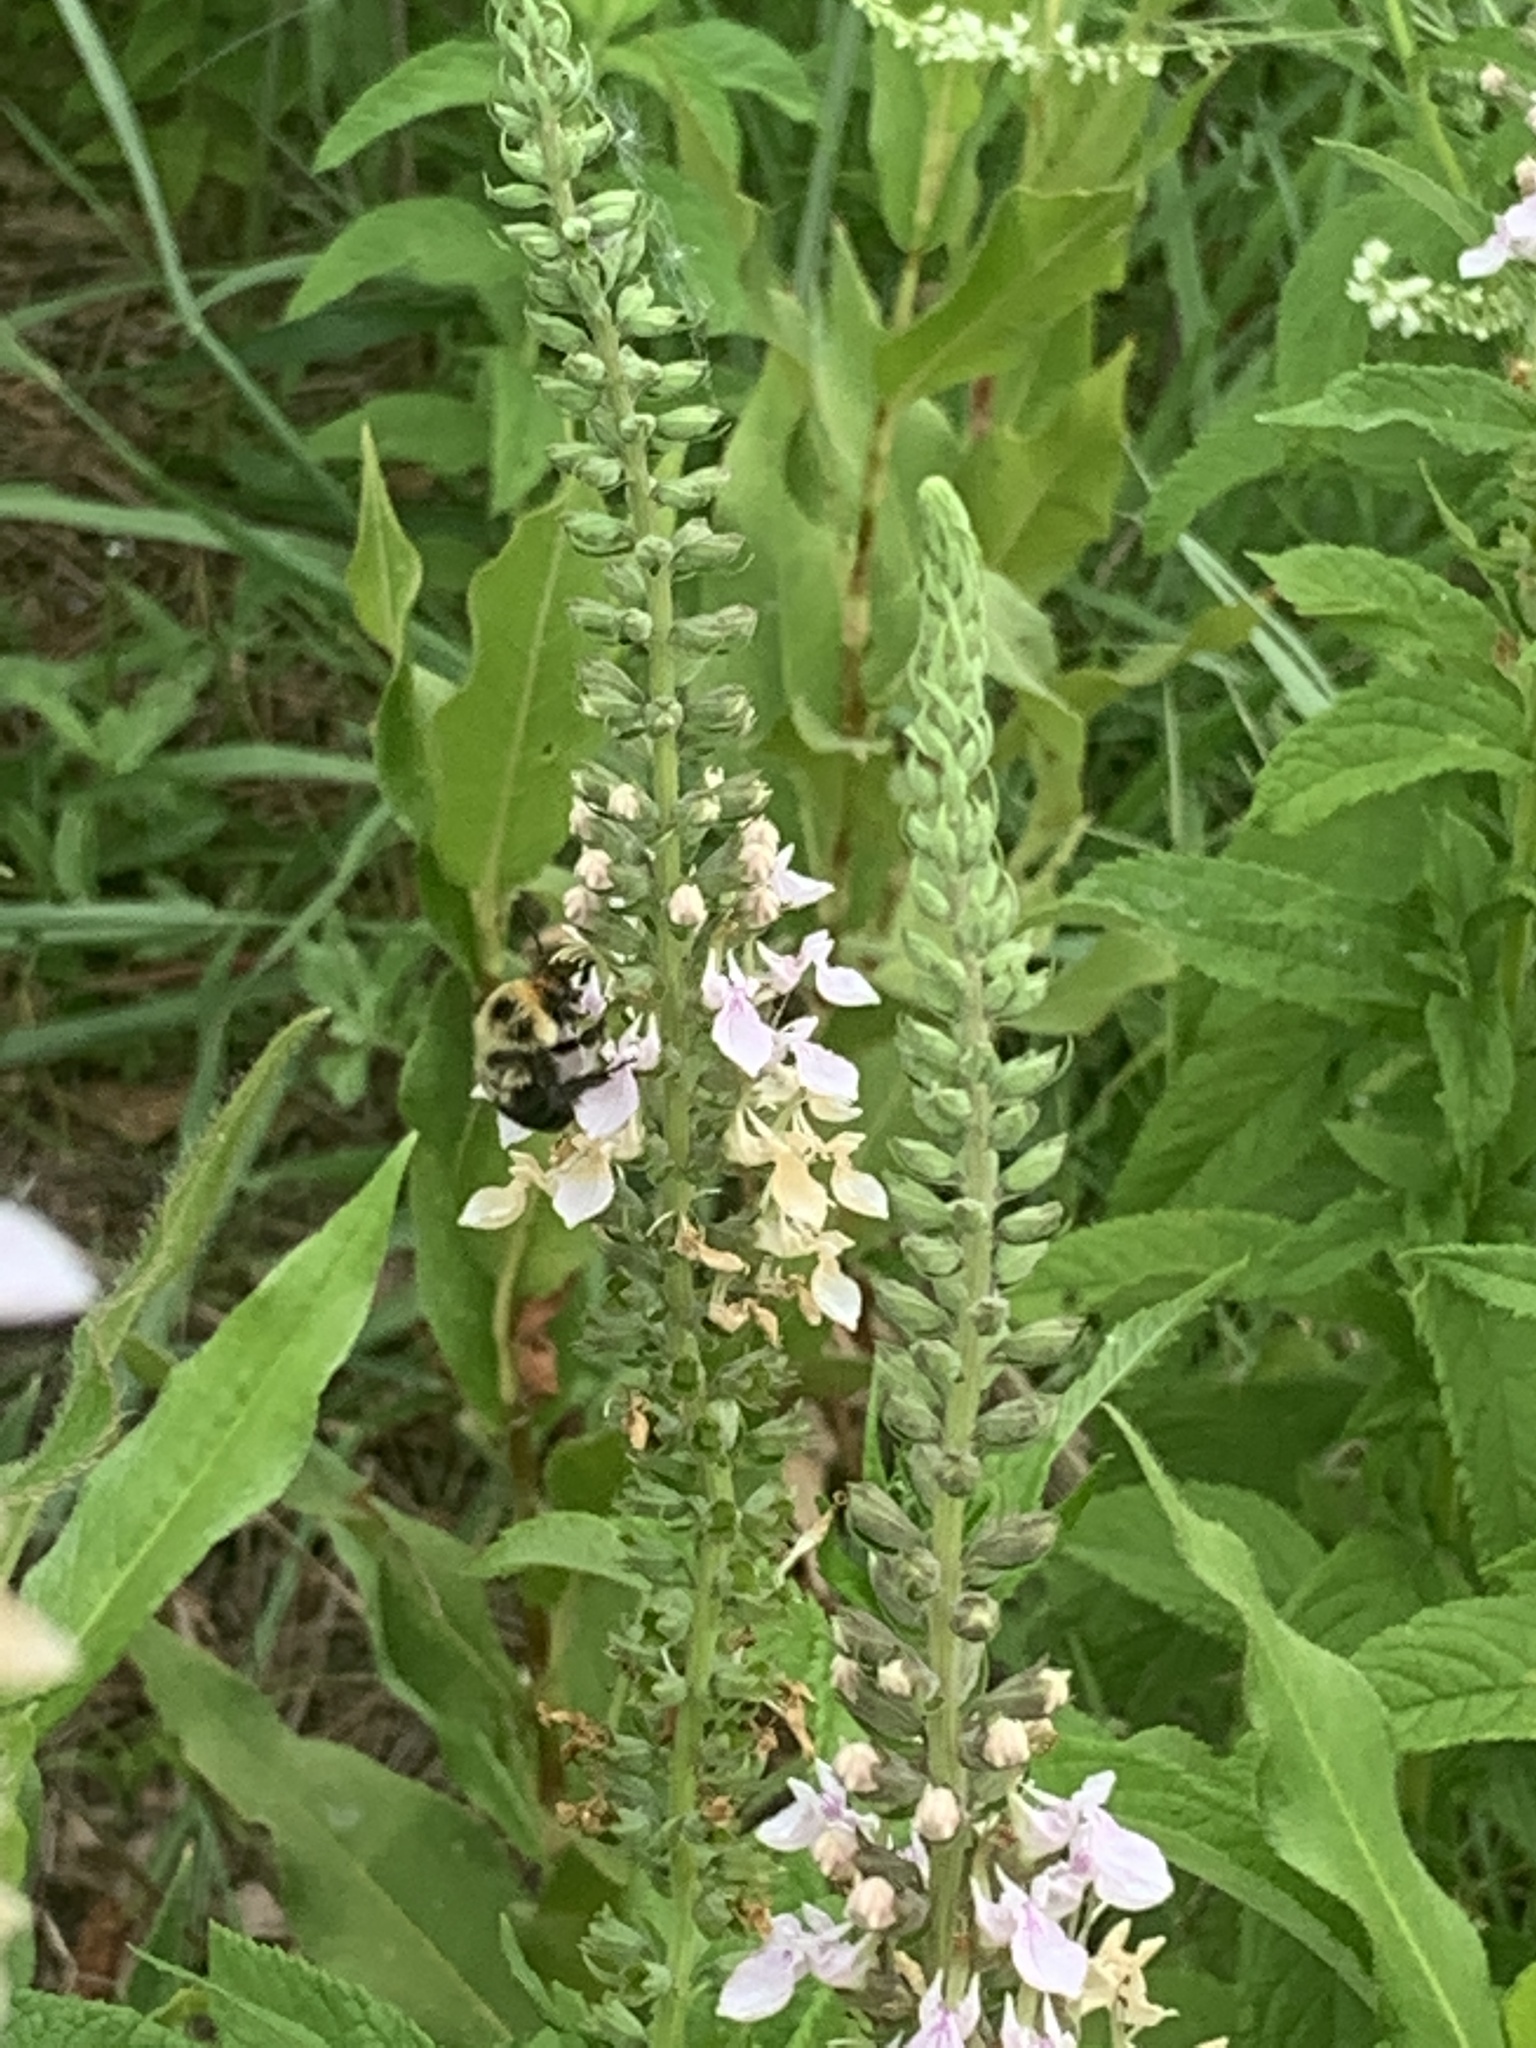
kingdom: Animalia
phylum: Arthropoda
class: Insecta
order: Hymenoptera
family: Apidae
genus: Bombus
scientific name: Bombus bimaculatus
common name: Two-spotted bumble bee
